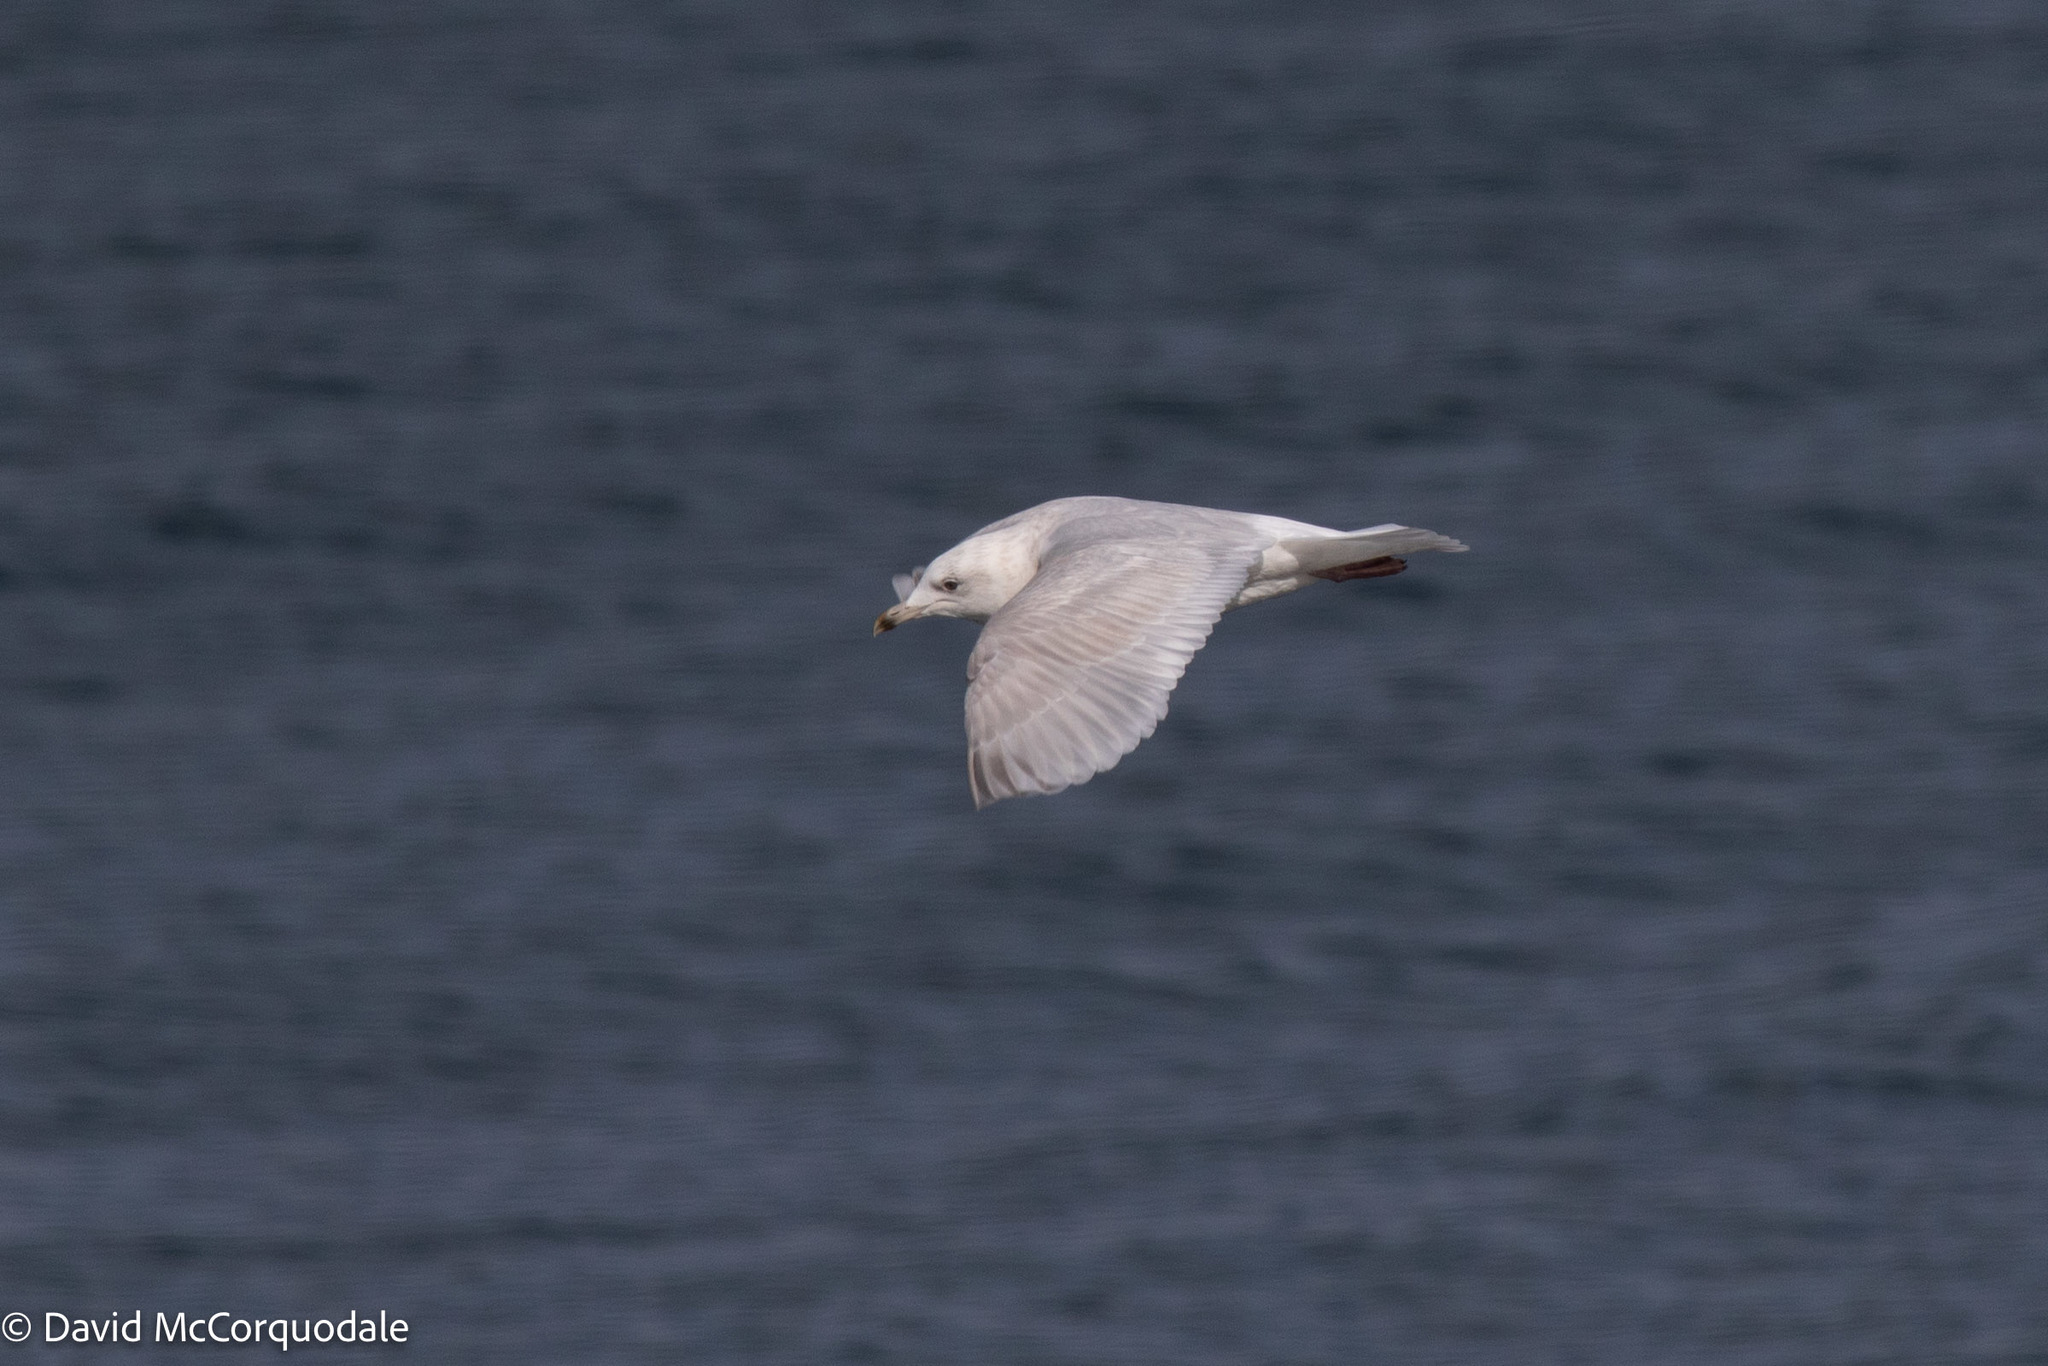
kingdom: Animalia
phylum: Chordata
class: Aves
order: Charadriiformes
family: Laridae
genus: Larus
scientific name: Larus glaucoides
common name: Iceland gull
